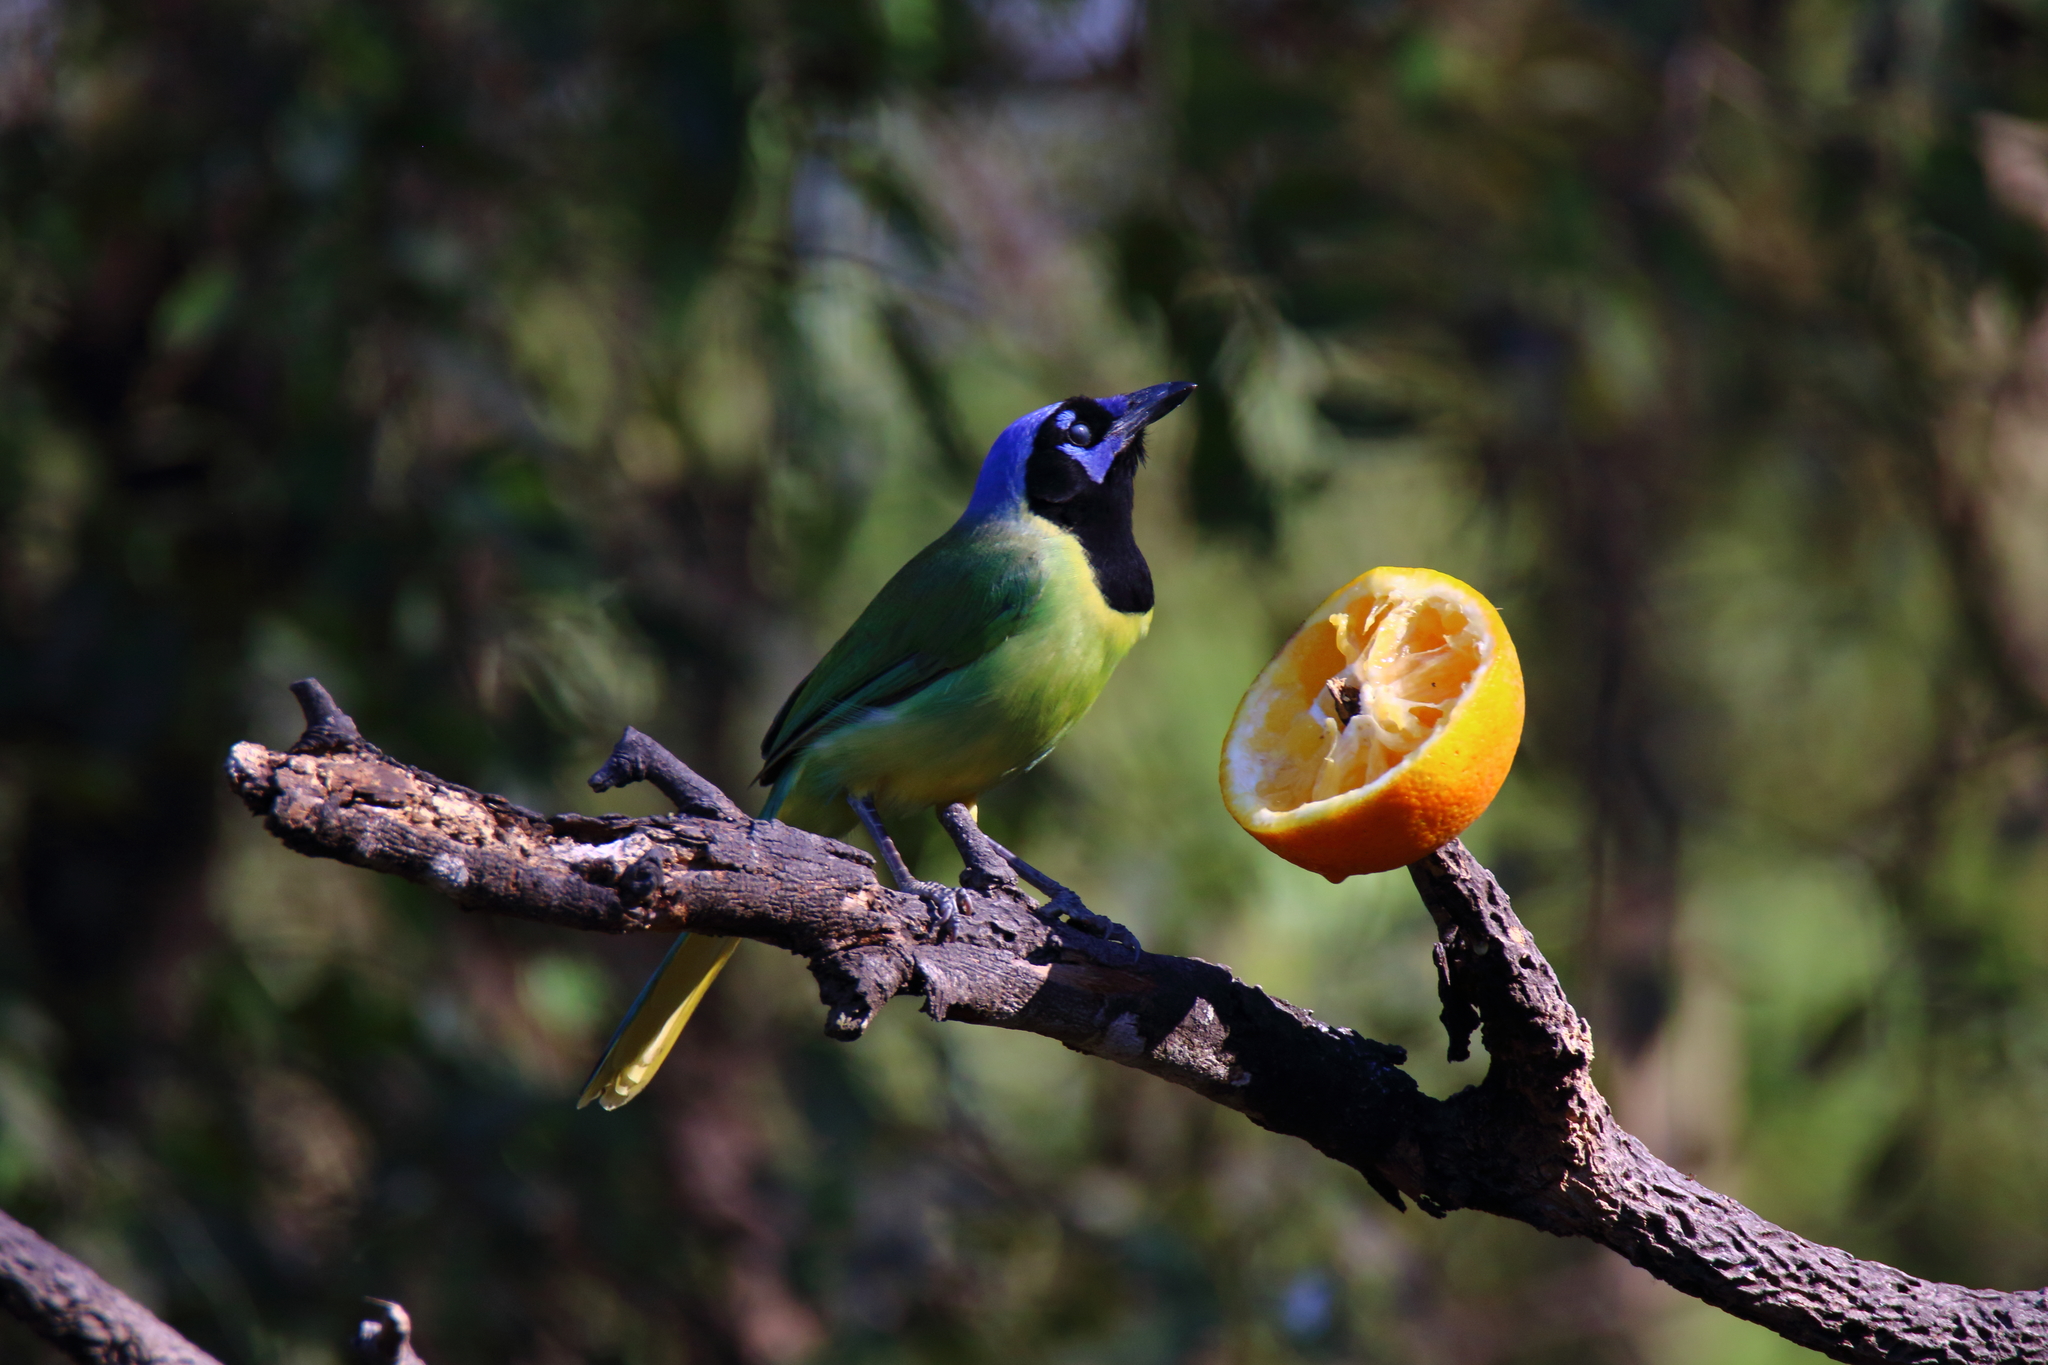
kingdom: Animalia
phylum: Chordata
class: Aves
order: Passeriformes
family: Corvidae
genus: Cyanocorax
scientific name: Cyanocorax yncas
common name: Green jay
